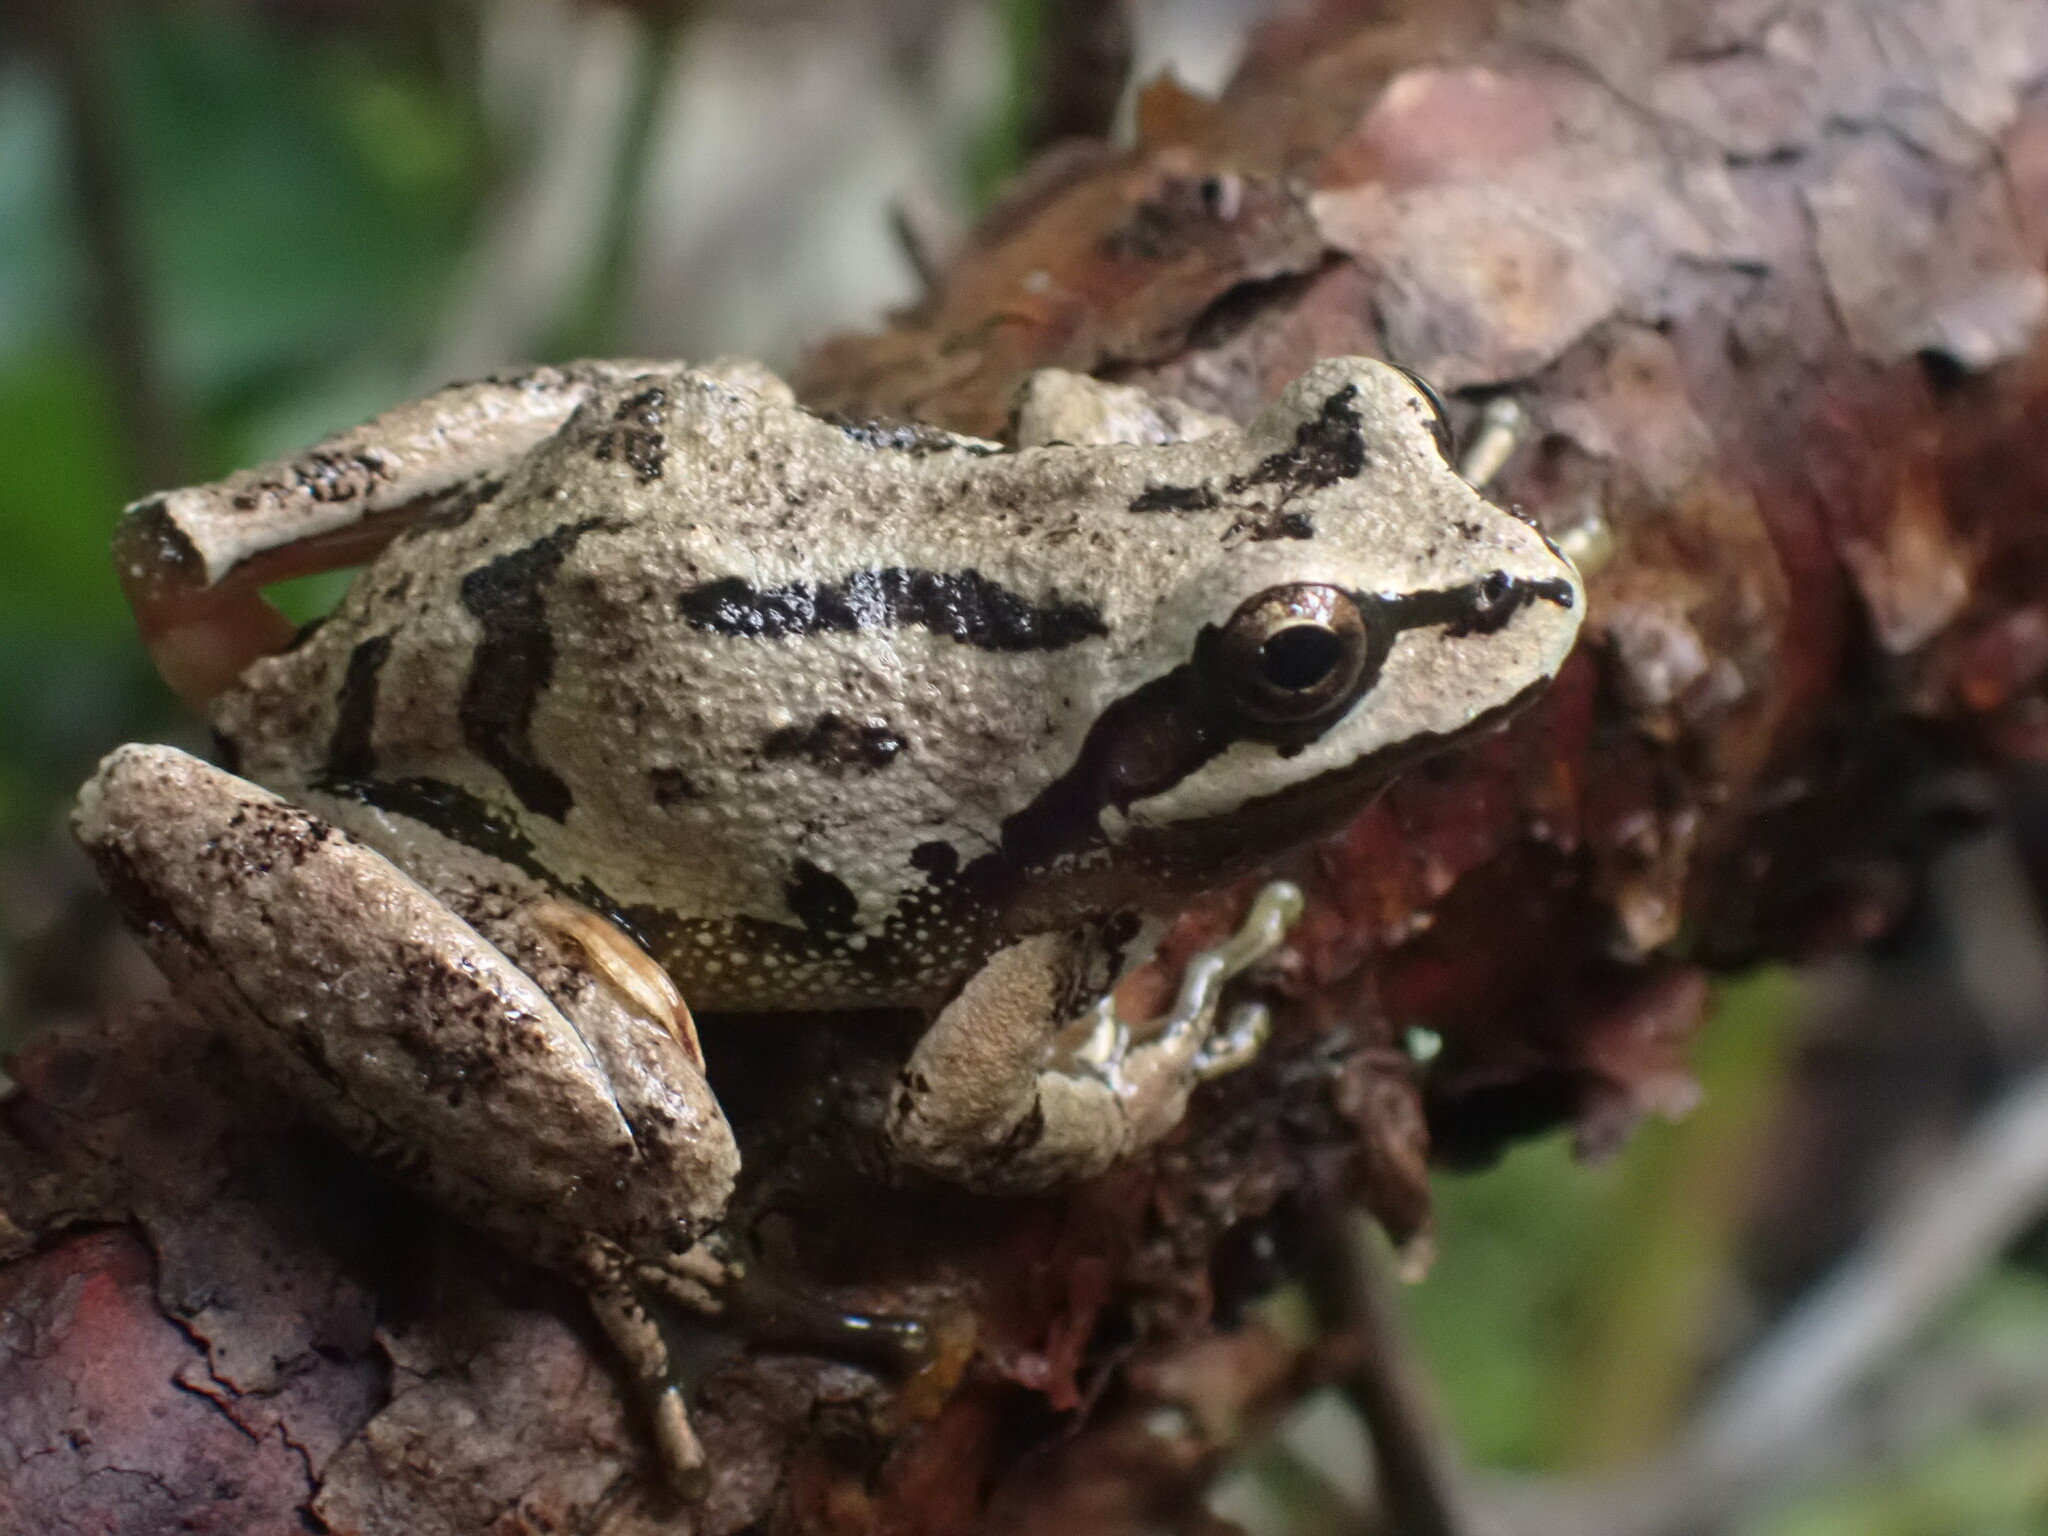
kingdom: Animalia
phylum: Chordata
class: Amphibia
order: Anura
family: Hylidae
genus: Pseudacris
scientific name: Pseudacris regilla
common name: Pacific chorus frog
